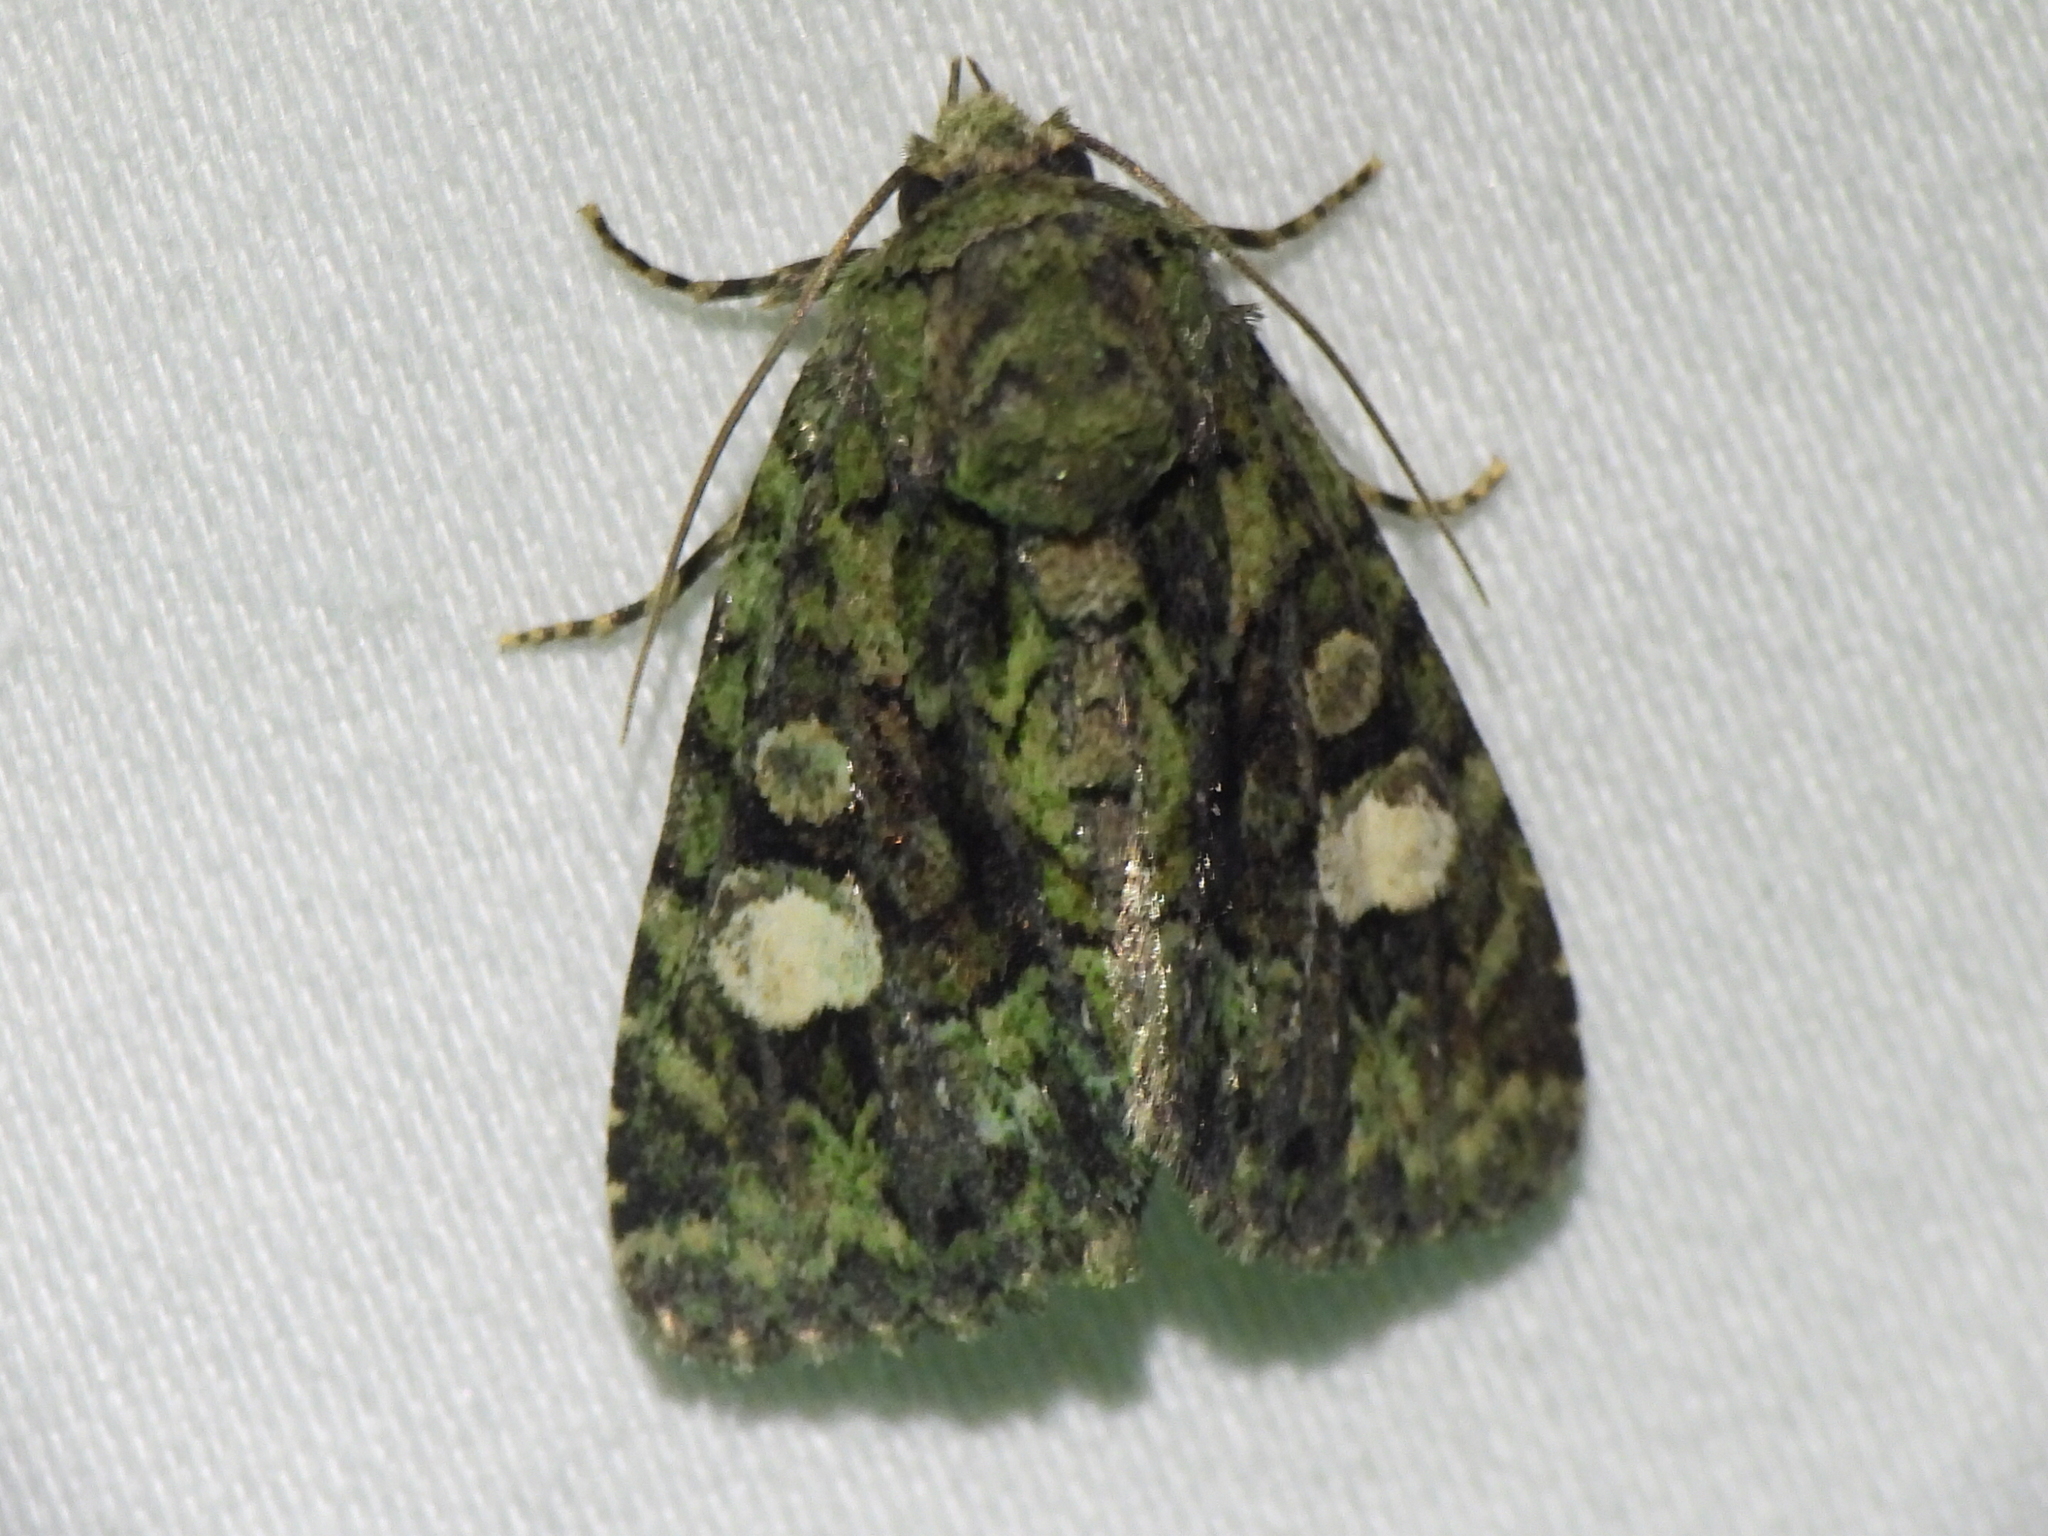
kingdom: Animalia
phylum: Arthropoda
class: Insecta
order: Lepidoptera
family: Noctuidae
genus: Phosphila
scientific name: Phosphila miselioides
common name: Spotted phosphila moth
